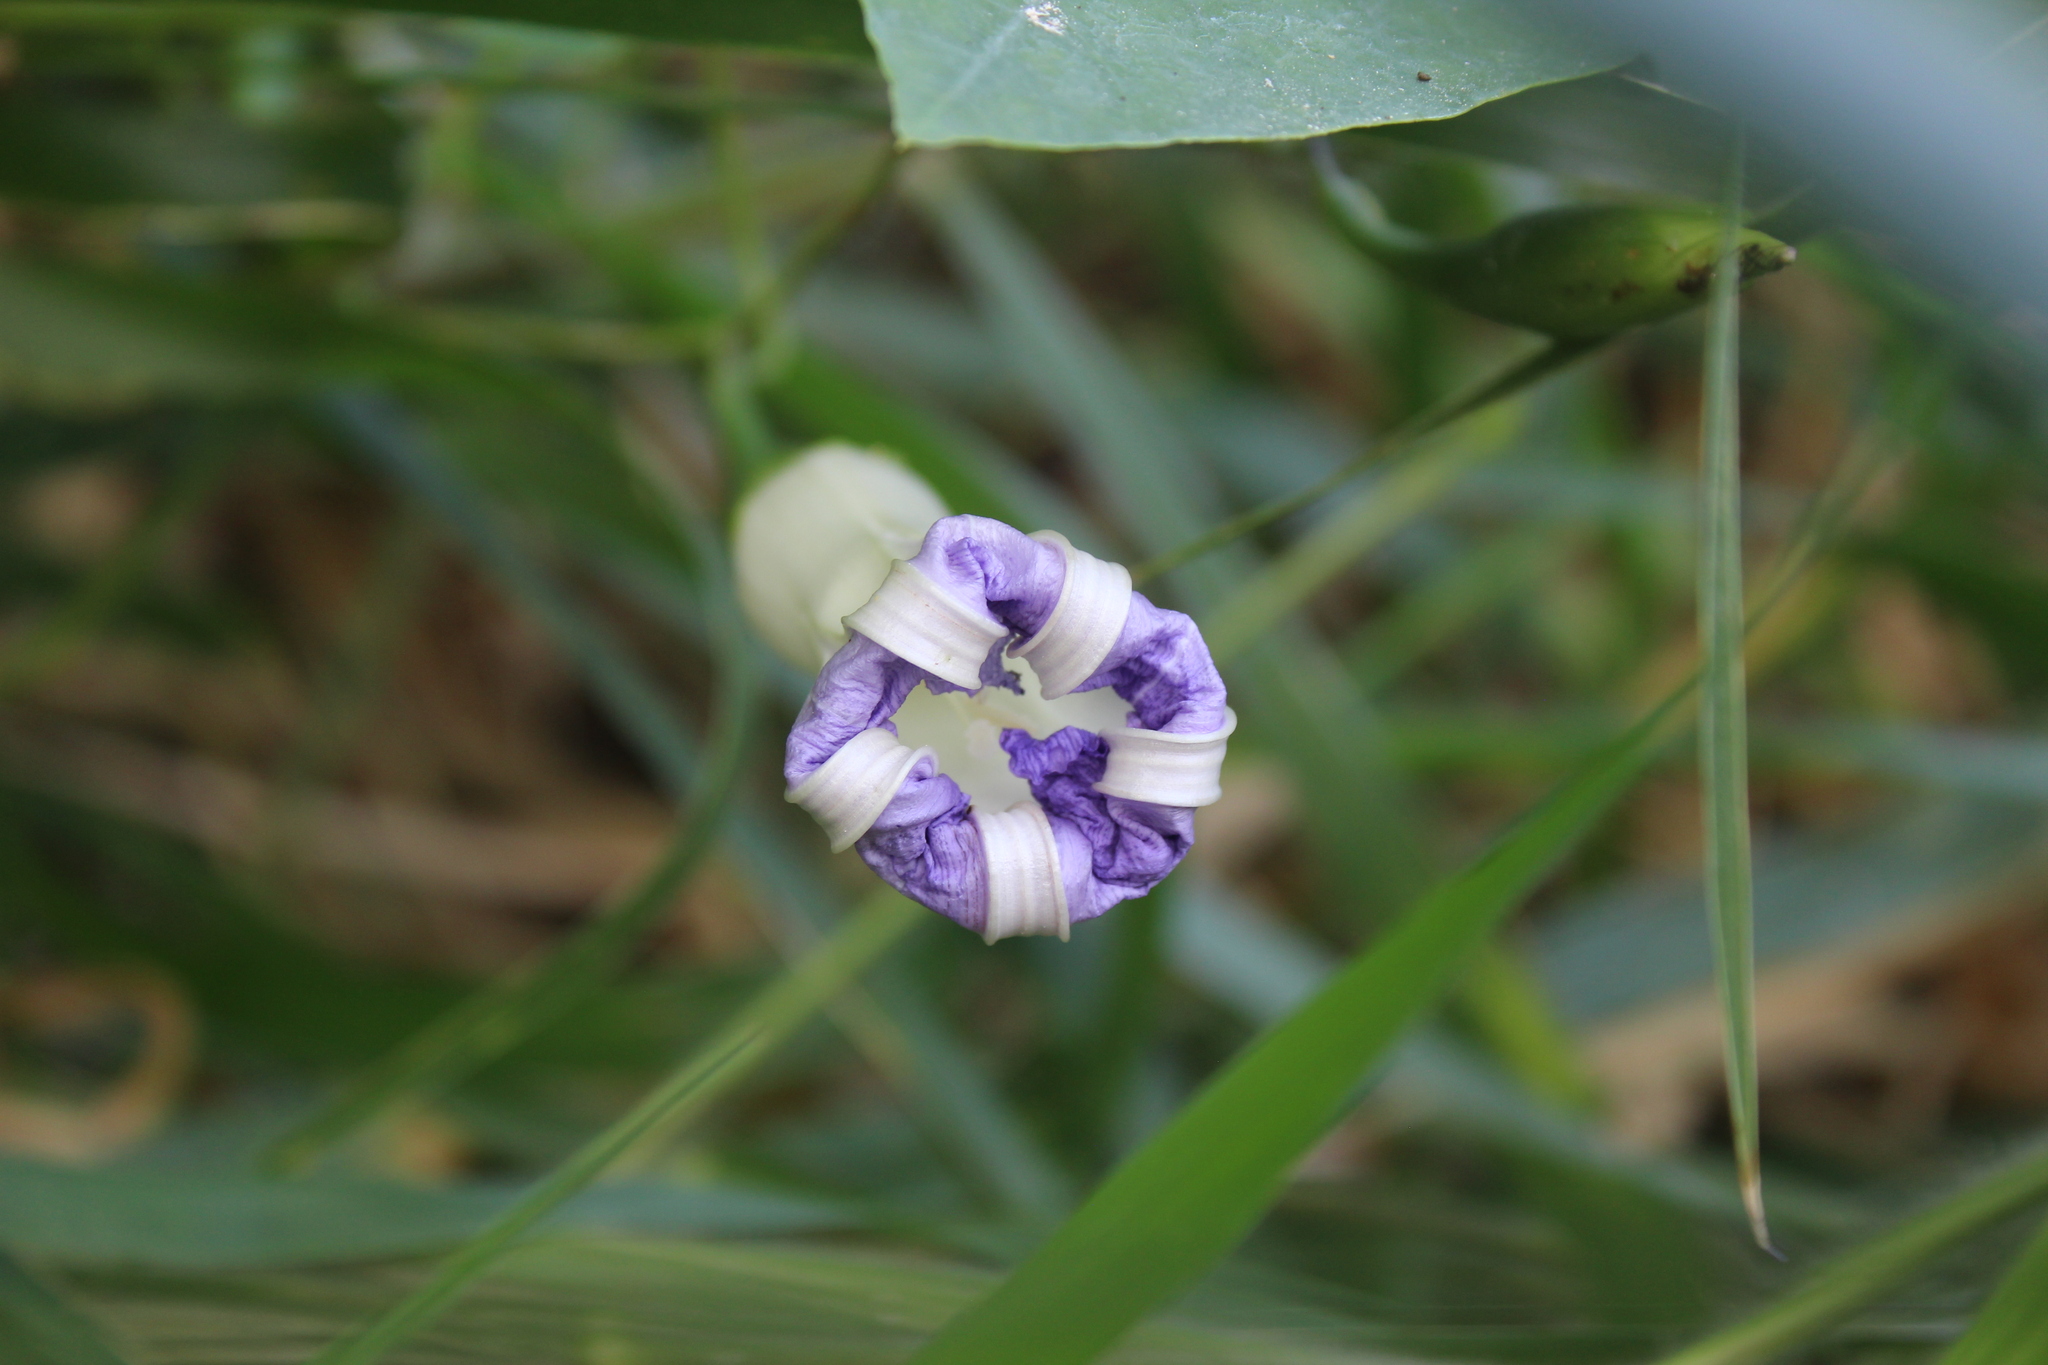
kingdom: Plantae
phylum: Tracheophyta
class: Magnoliopsida
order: Solanales
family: Convolvulaceae
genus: Ipomoea
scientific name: Ipomoea clavata
